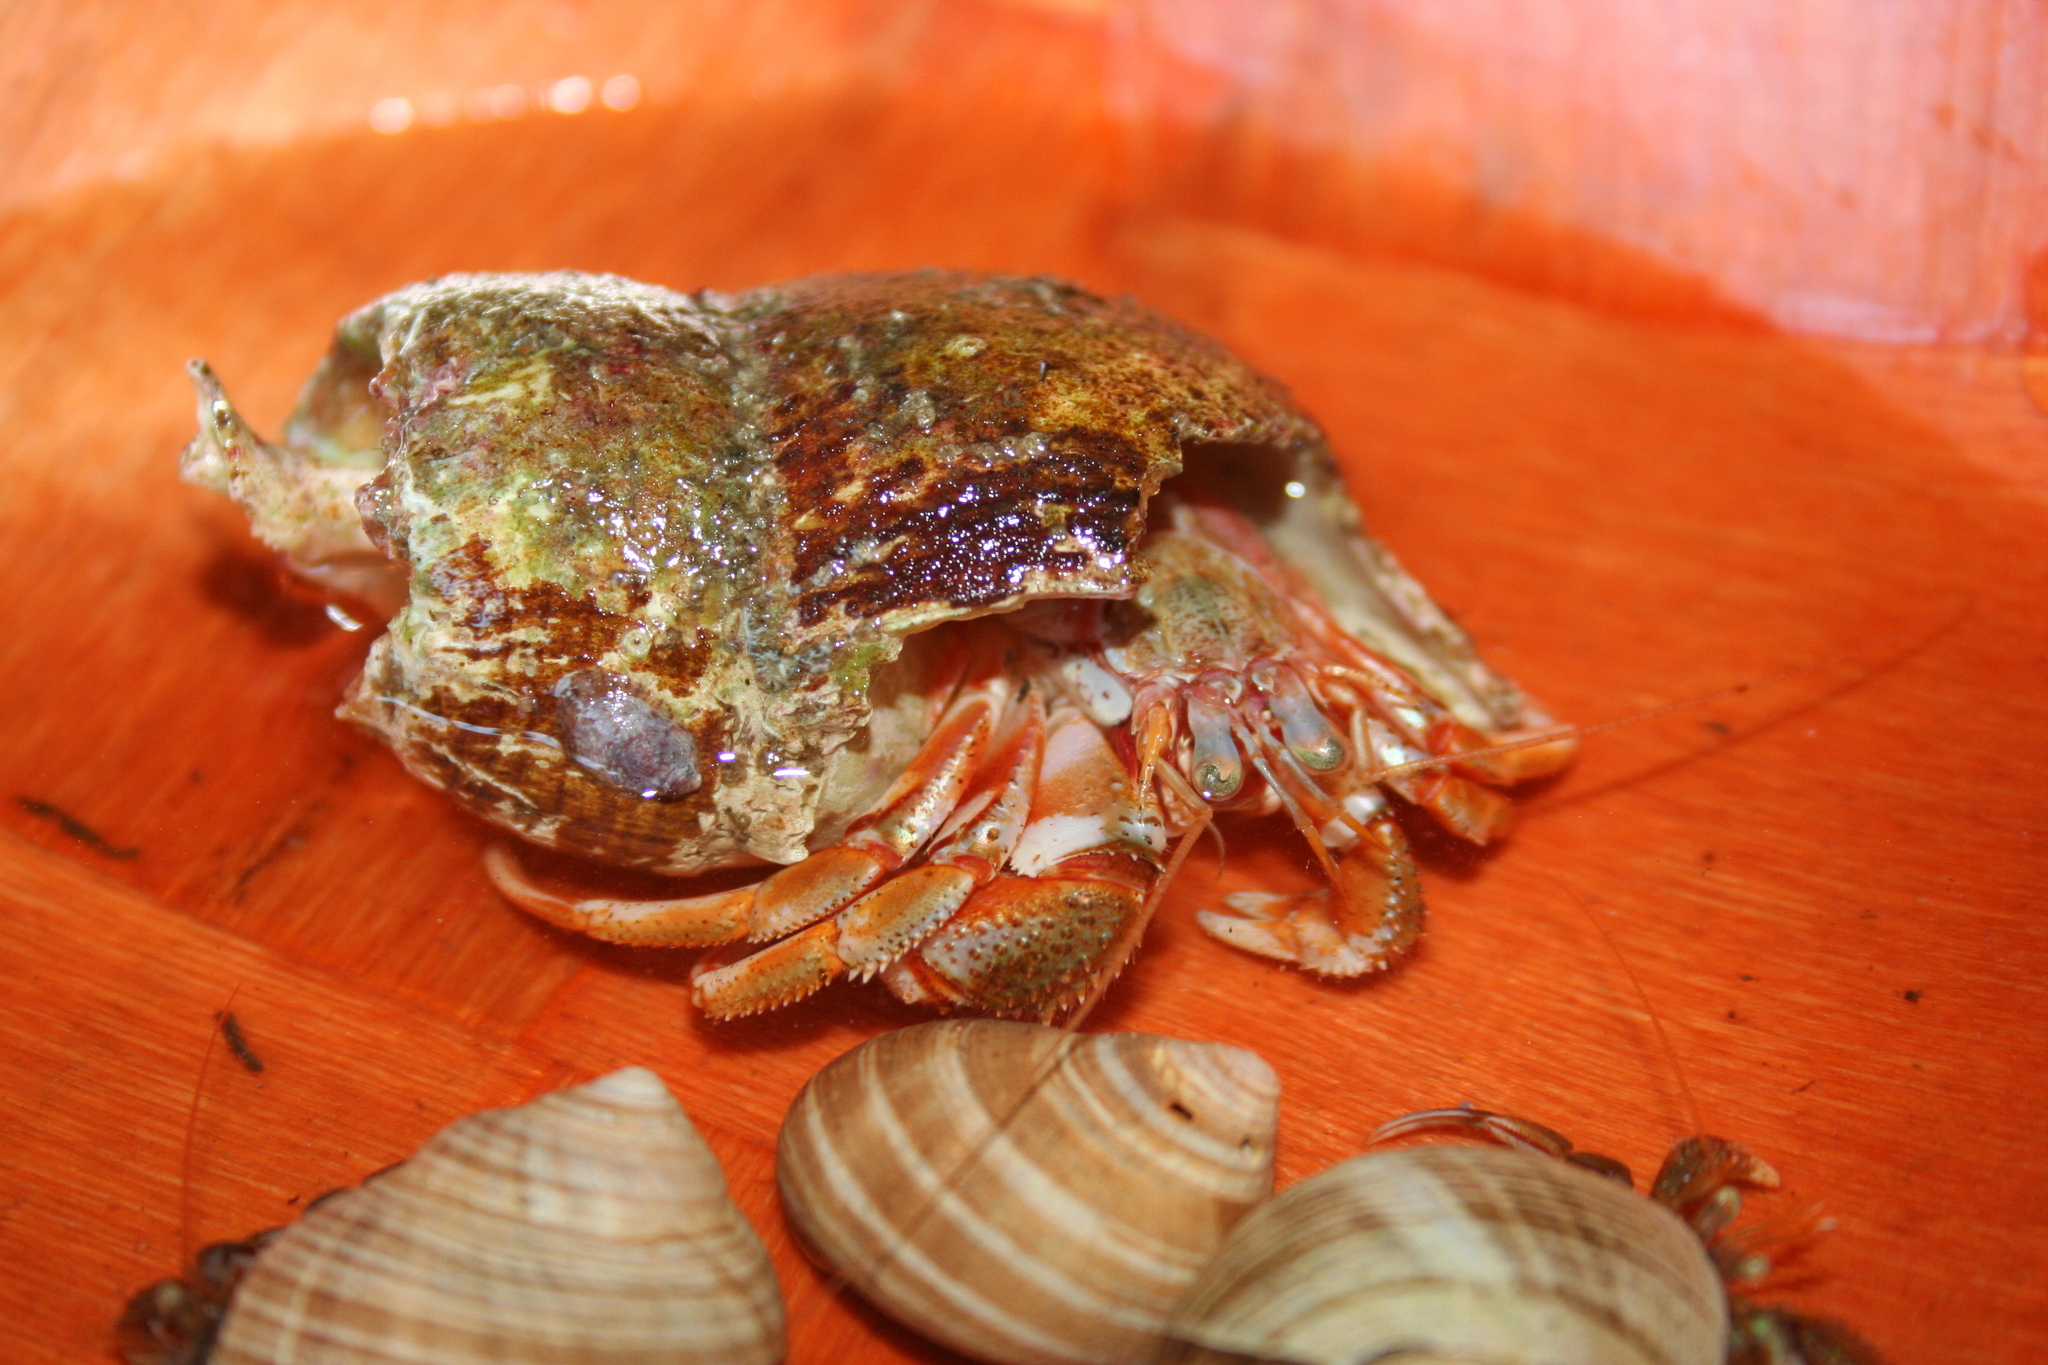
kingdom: Animalia
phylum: Arthropoda
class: Malacostraca
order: Decapoda
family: Paguridae
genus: Pagurus
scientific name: Pagurus acadianus
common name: Acadian hermit crab
